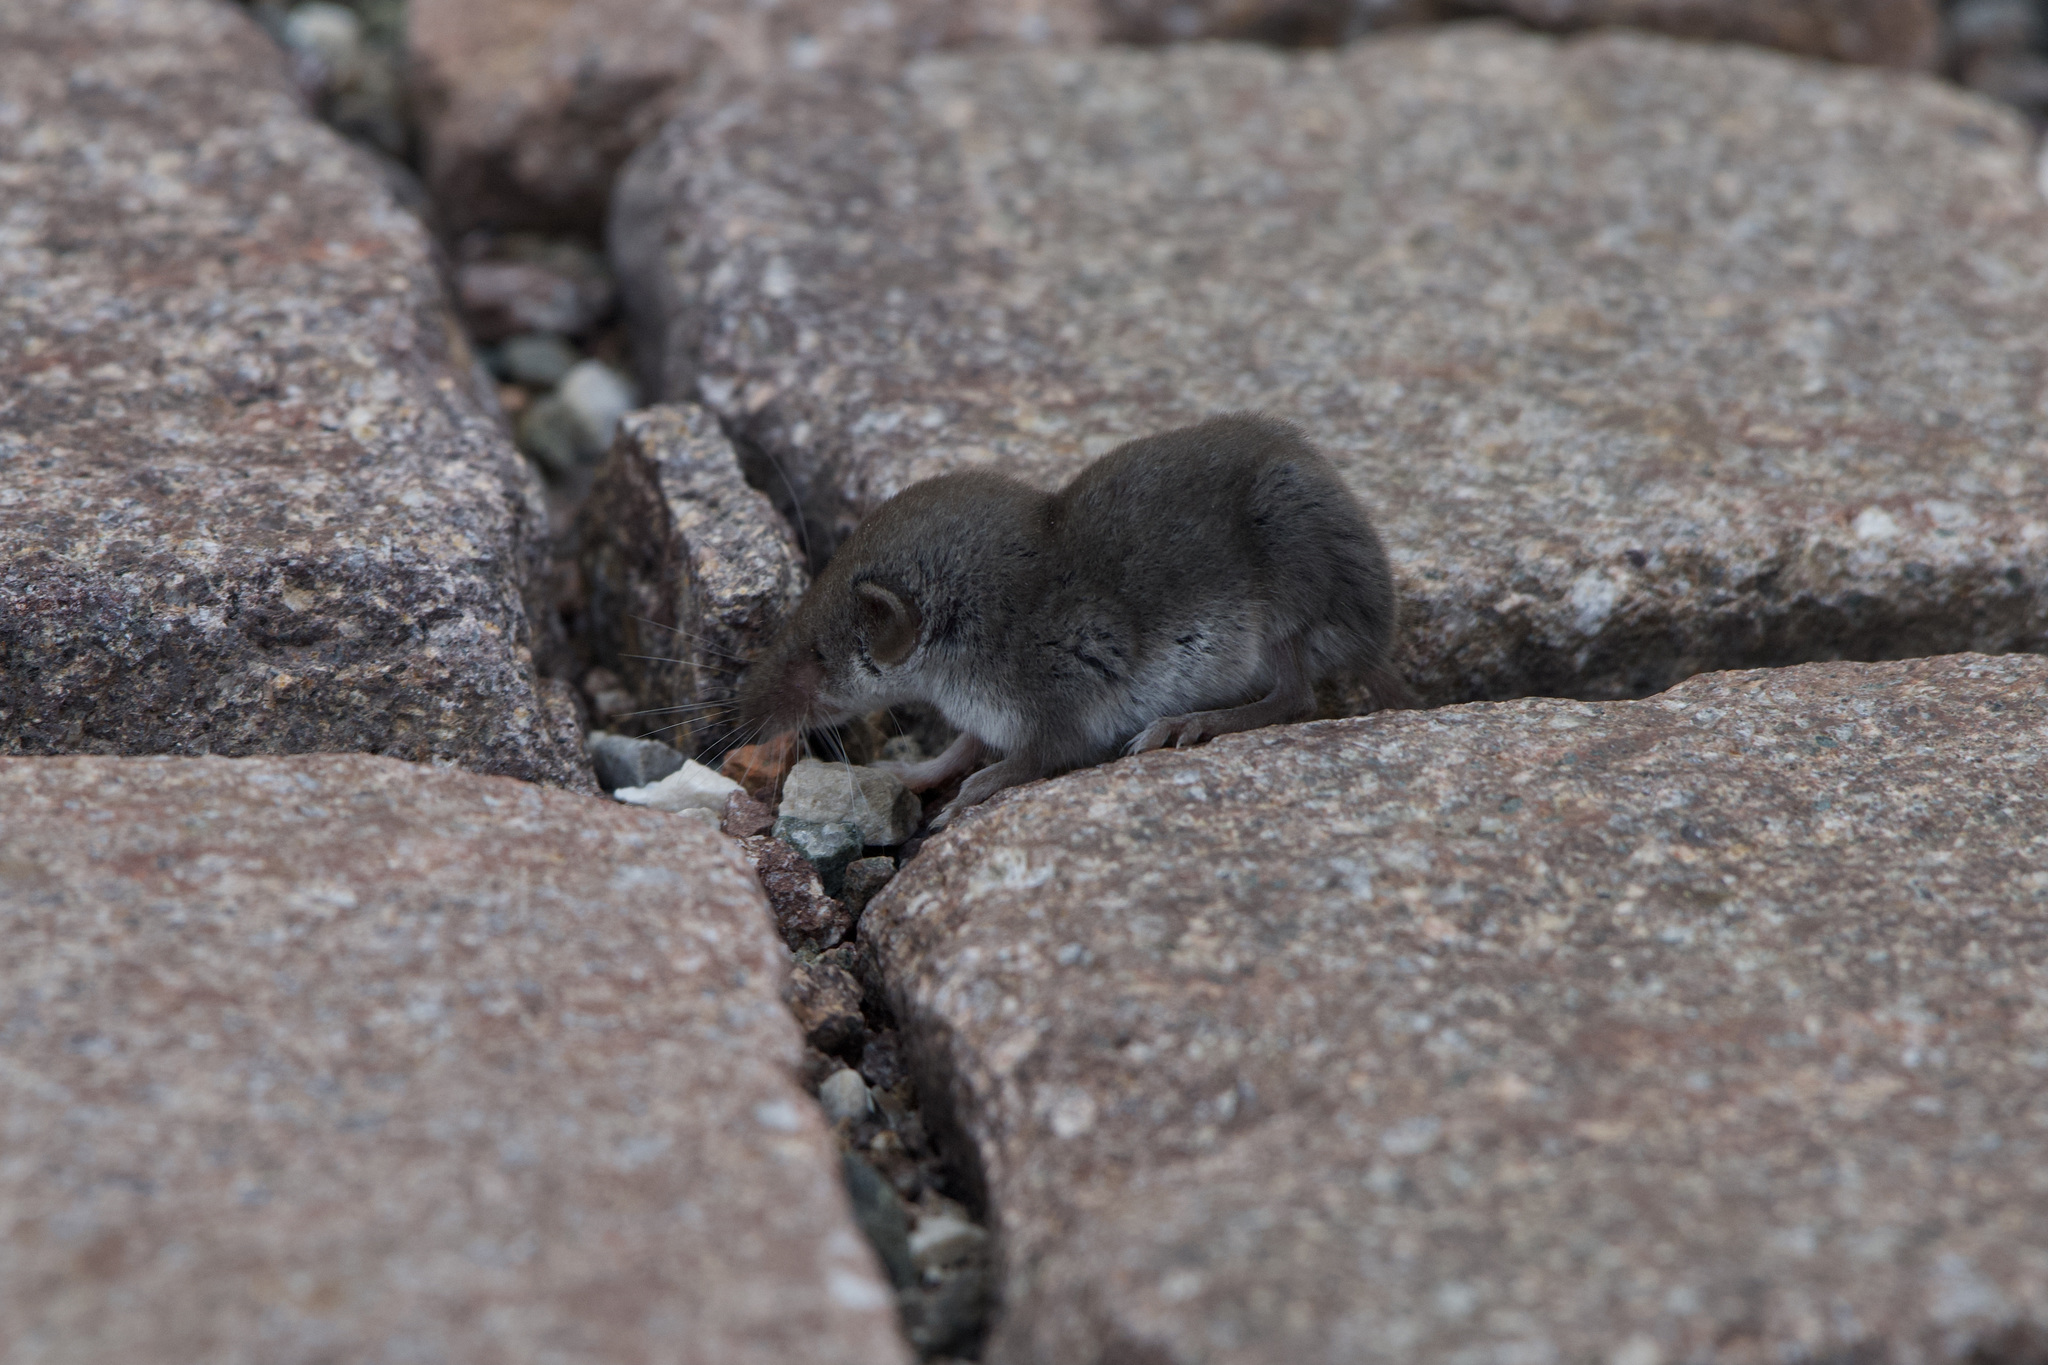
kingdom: Animalia
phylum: Chordata
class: Mammalia
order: Soricomorpha
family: Soricidae
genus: Suncus
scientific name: Suncus etruscus
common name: Etruscan shrew
